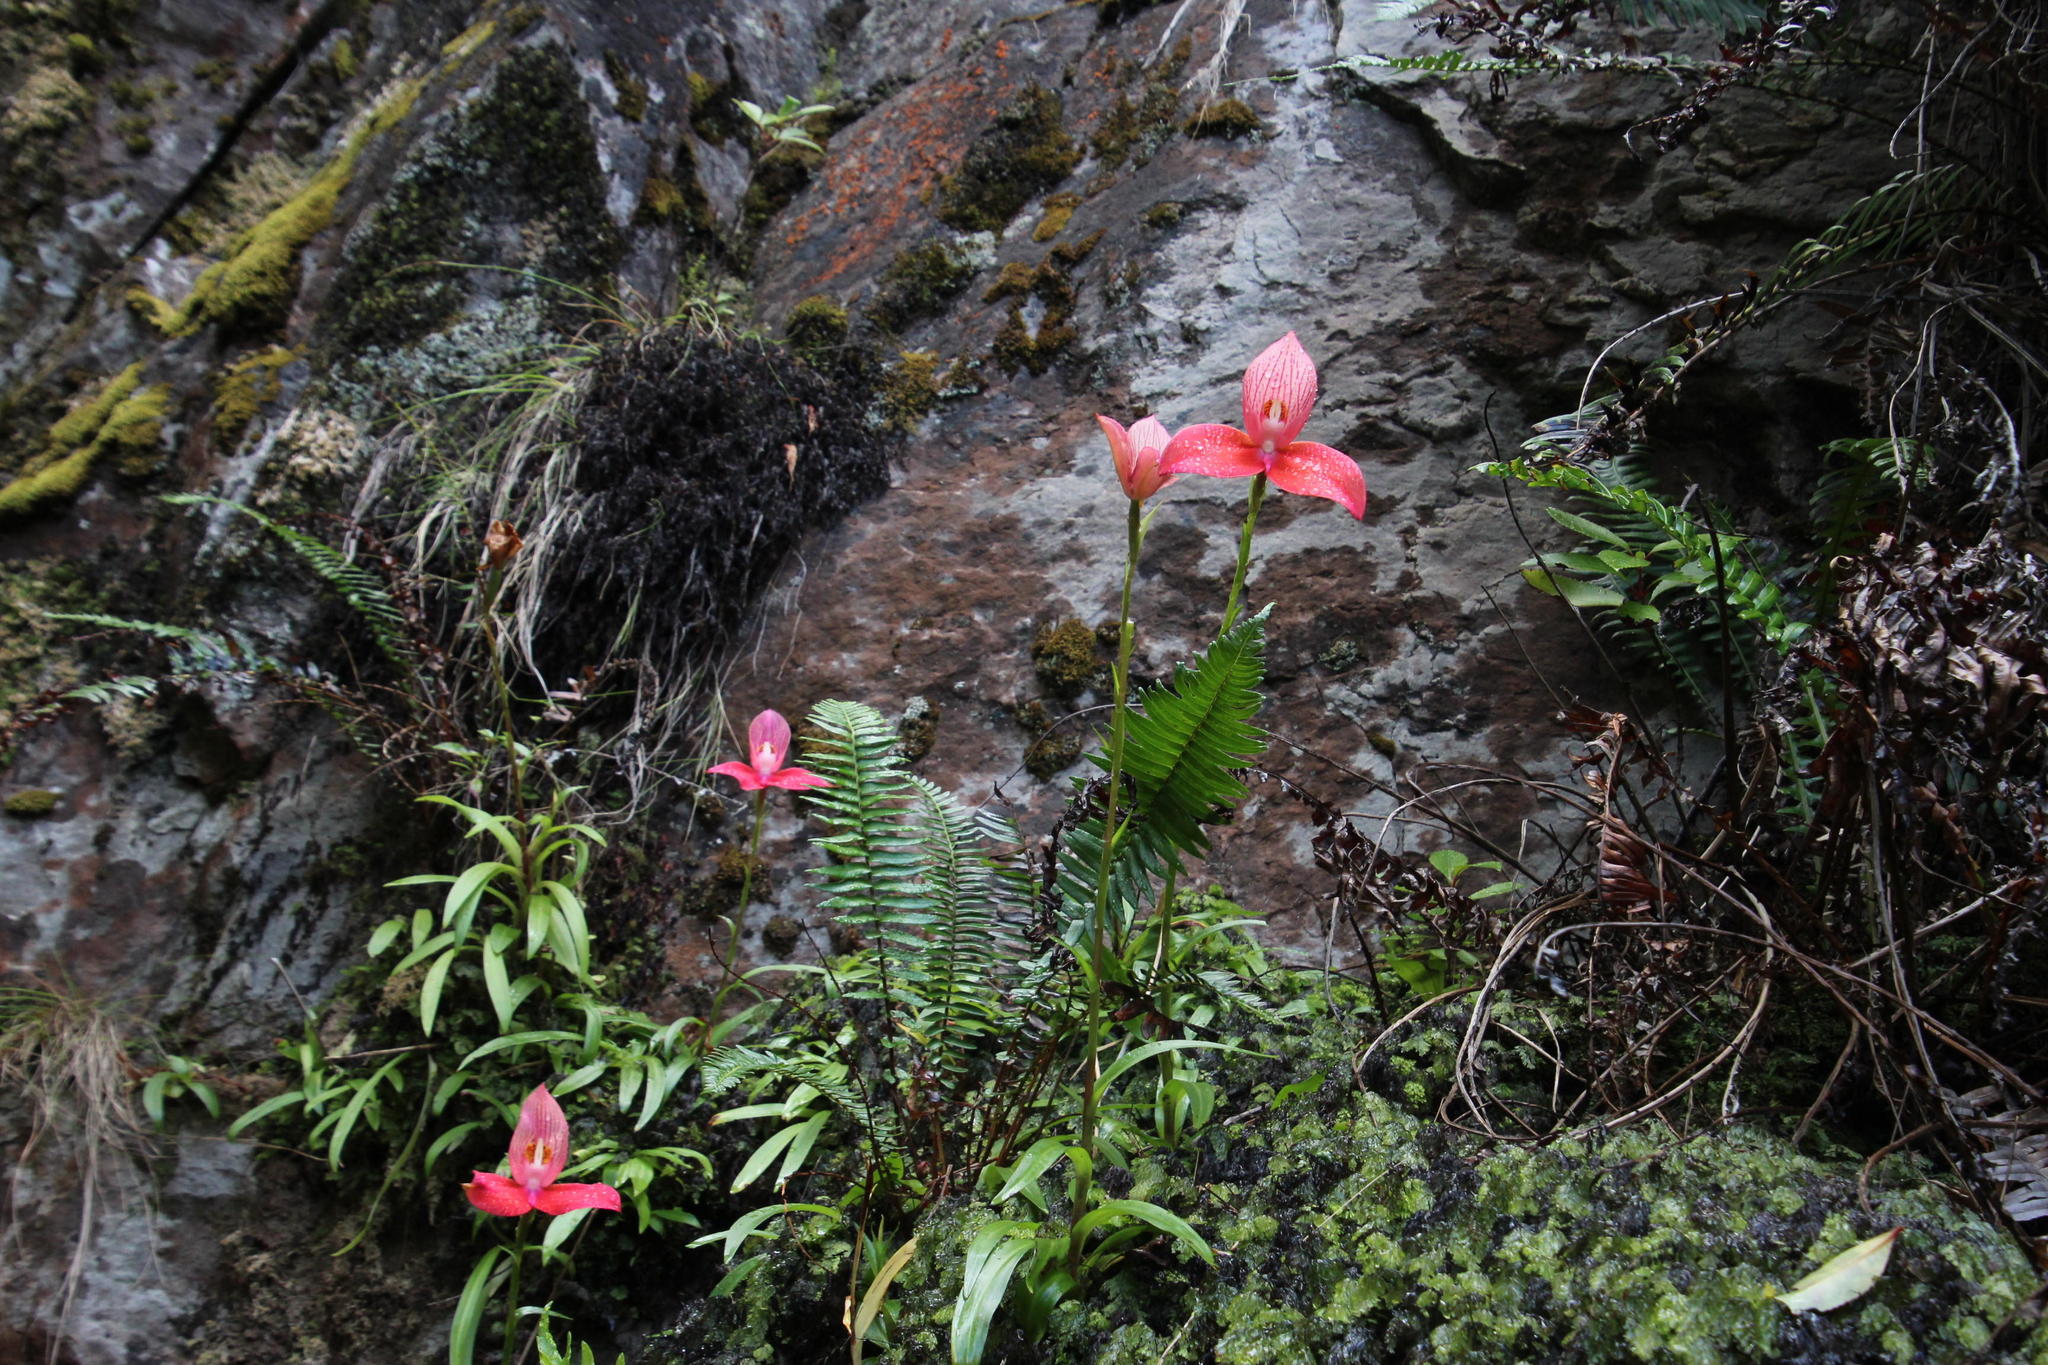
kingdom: Plantae
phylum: Tracheophyta
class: Liliopsida
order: Asparagales
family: Orchidaceae
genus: Disa
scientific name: Disa uniflora
